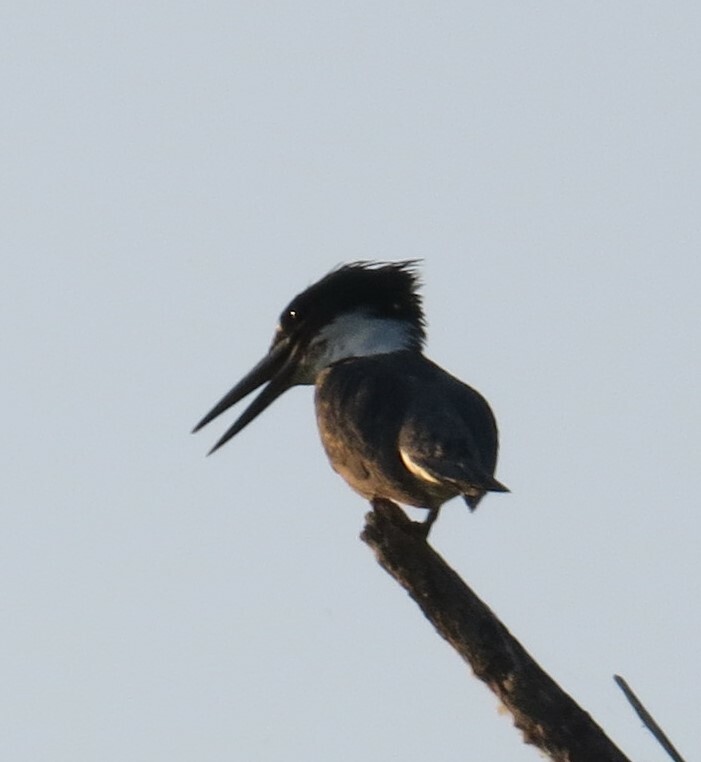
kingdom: Animalia
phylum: Chordata
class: Aves
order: Coraciiformes
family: Alcedinidae
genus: Megaceryle
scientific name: Megaceryle alcyon
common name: Belted kingfisher
